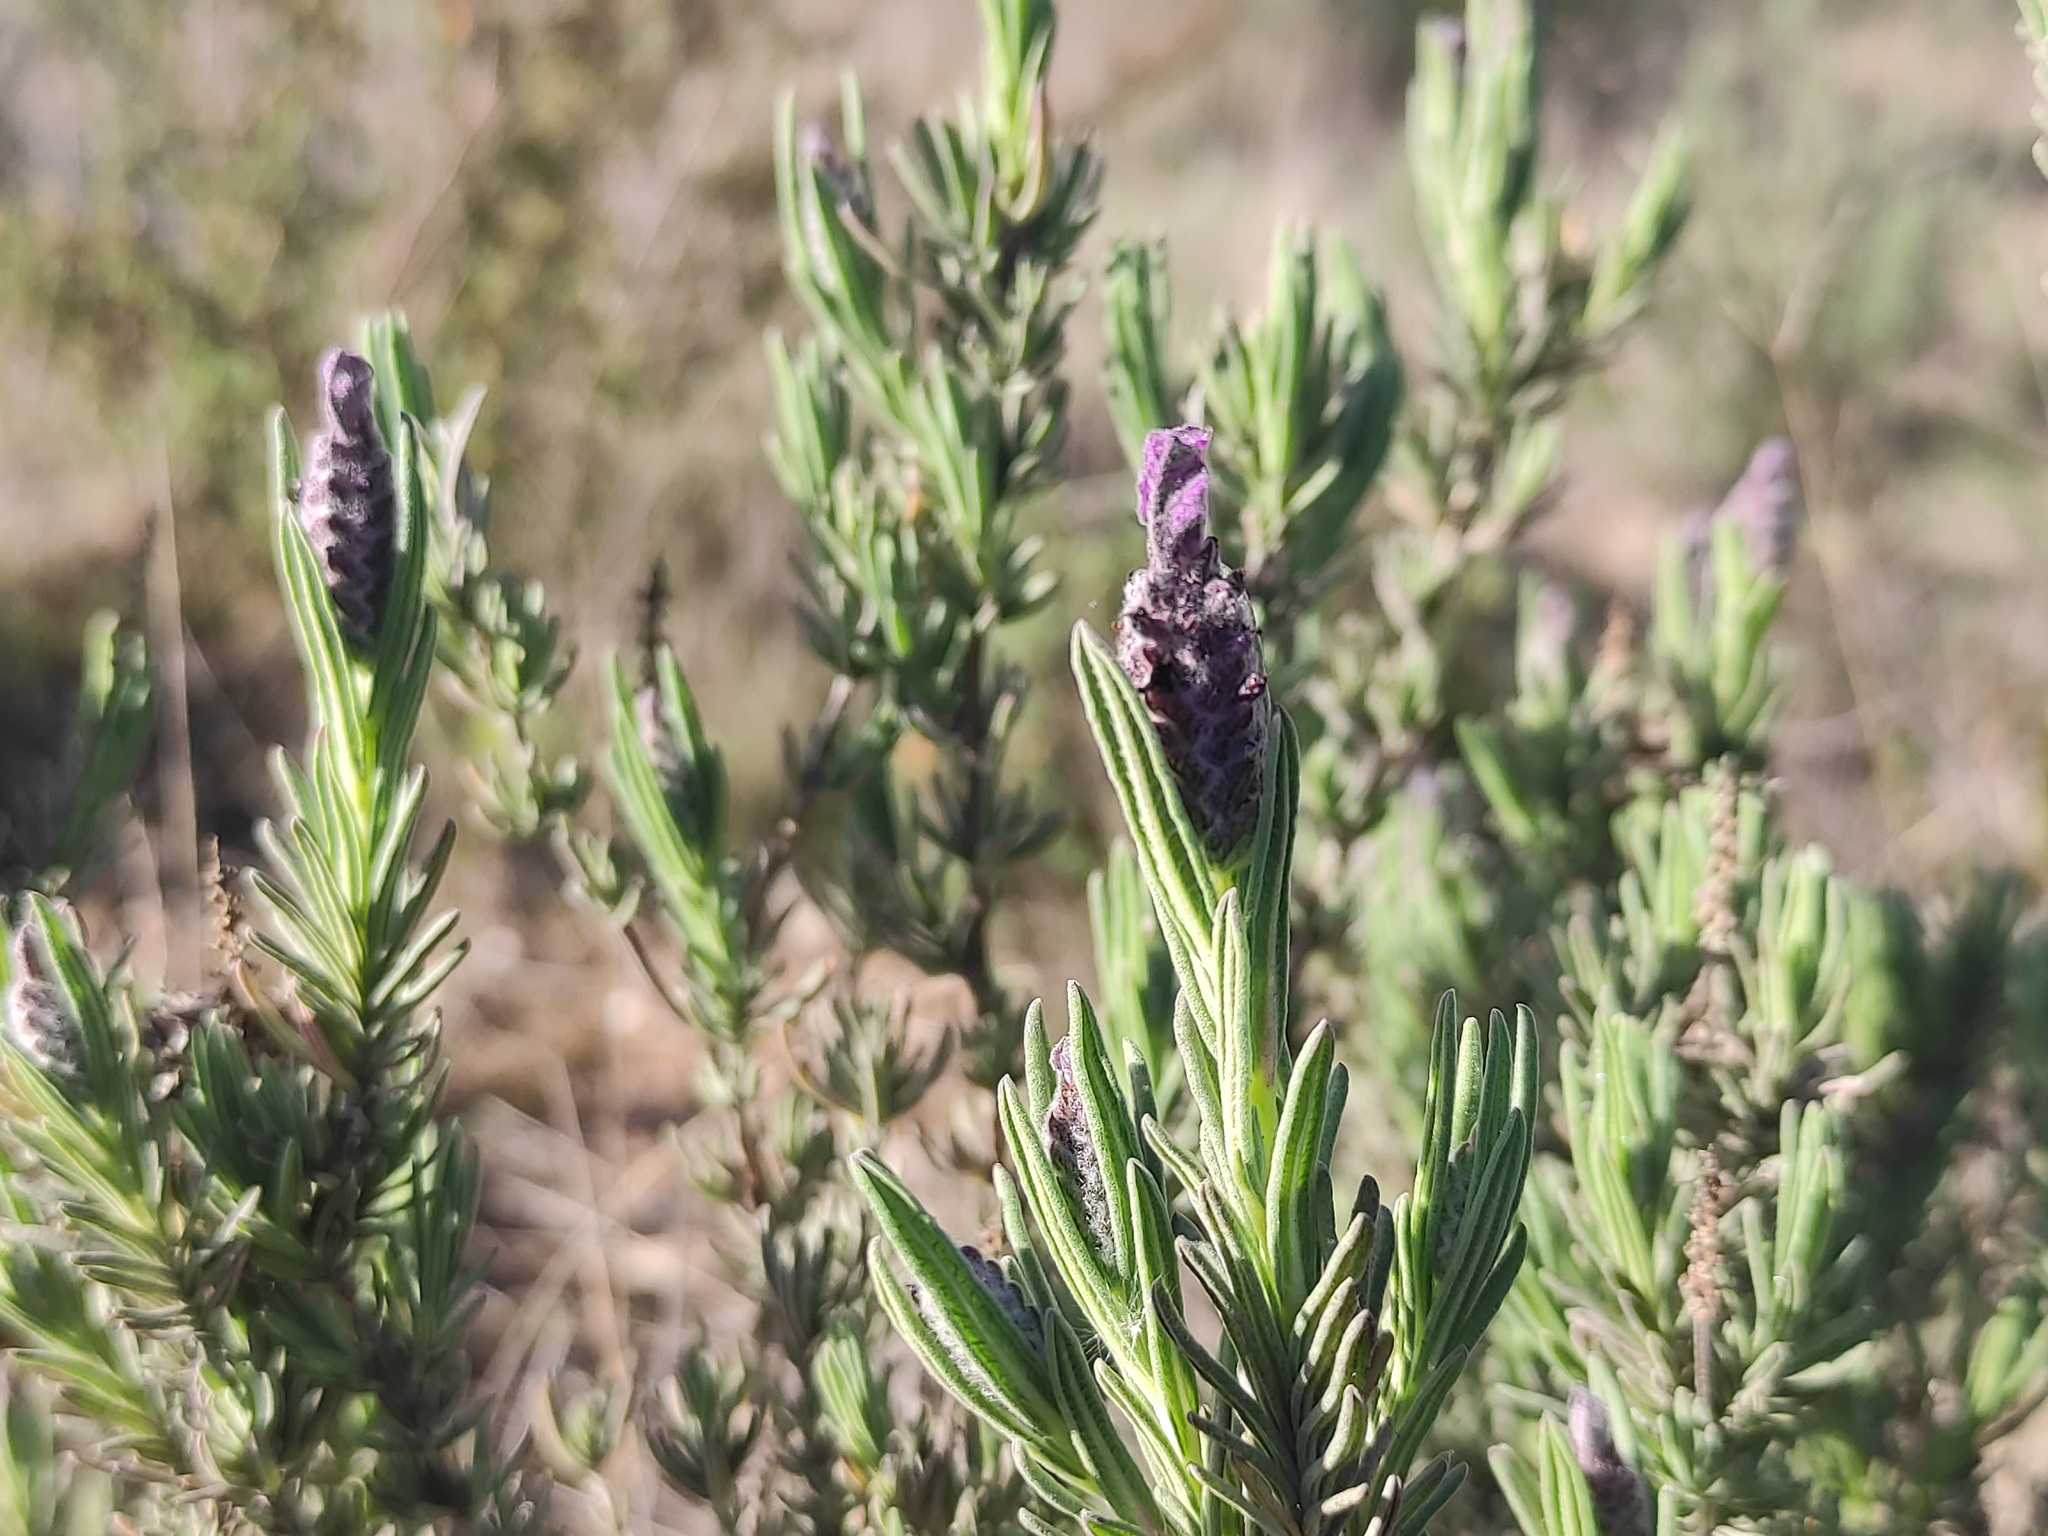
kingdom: Plantae
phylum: Tracheophyta
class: Magnoliopsida
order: Lamiales
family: Lamiaceae
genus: Lavandula
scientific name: Lavandula stoechas
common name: French lavender
